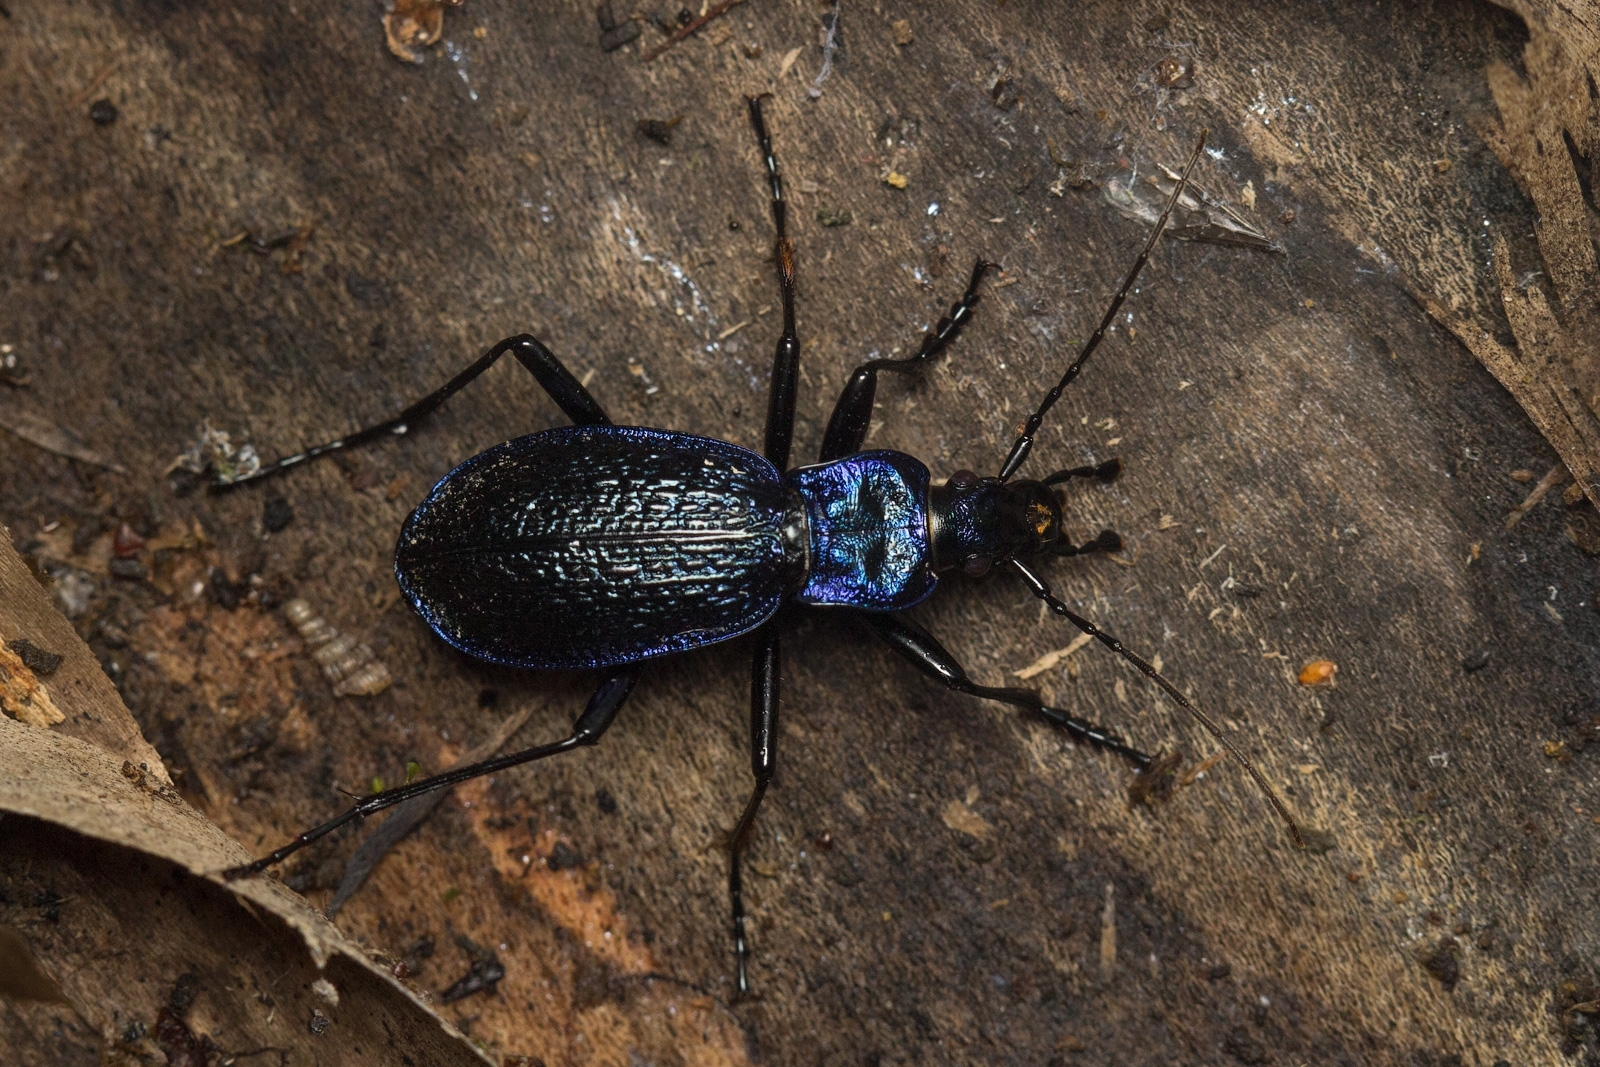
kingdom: Animalia
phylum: Arthropoda
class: Insecta
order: Coleoptera
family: Carabidae
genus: Carabus
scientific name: Carabus intricatus
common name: Blue ground beetle
